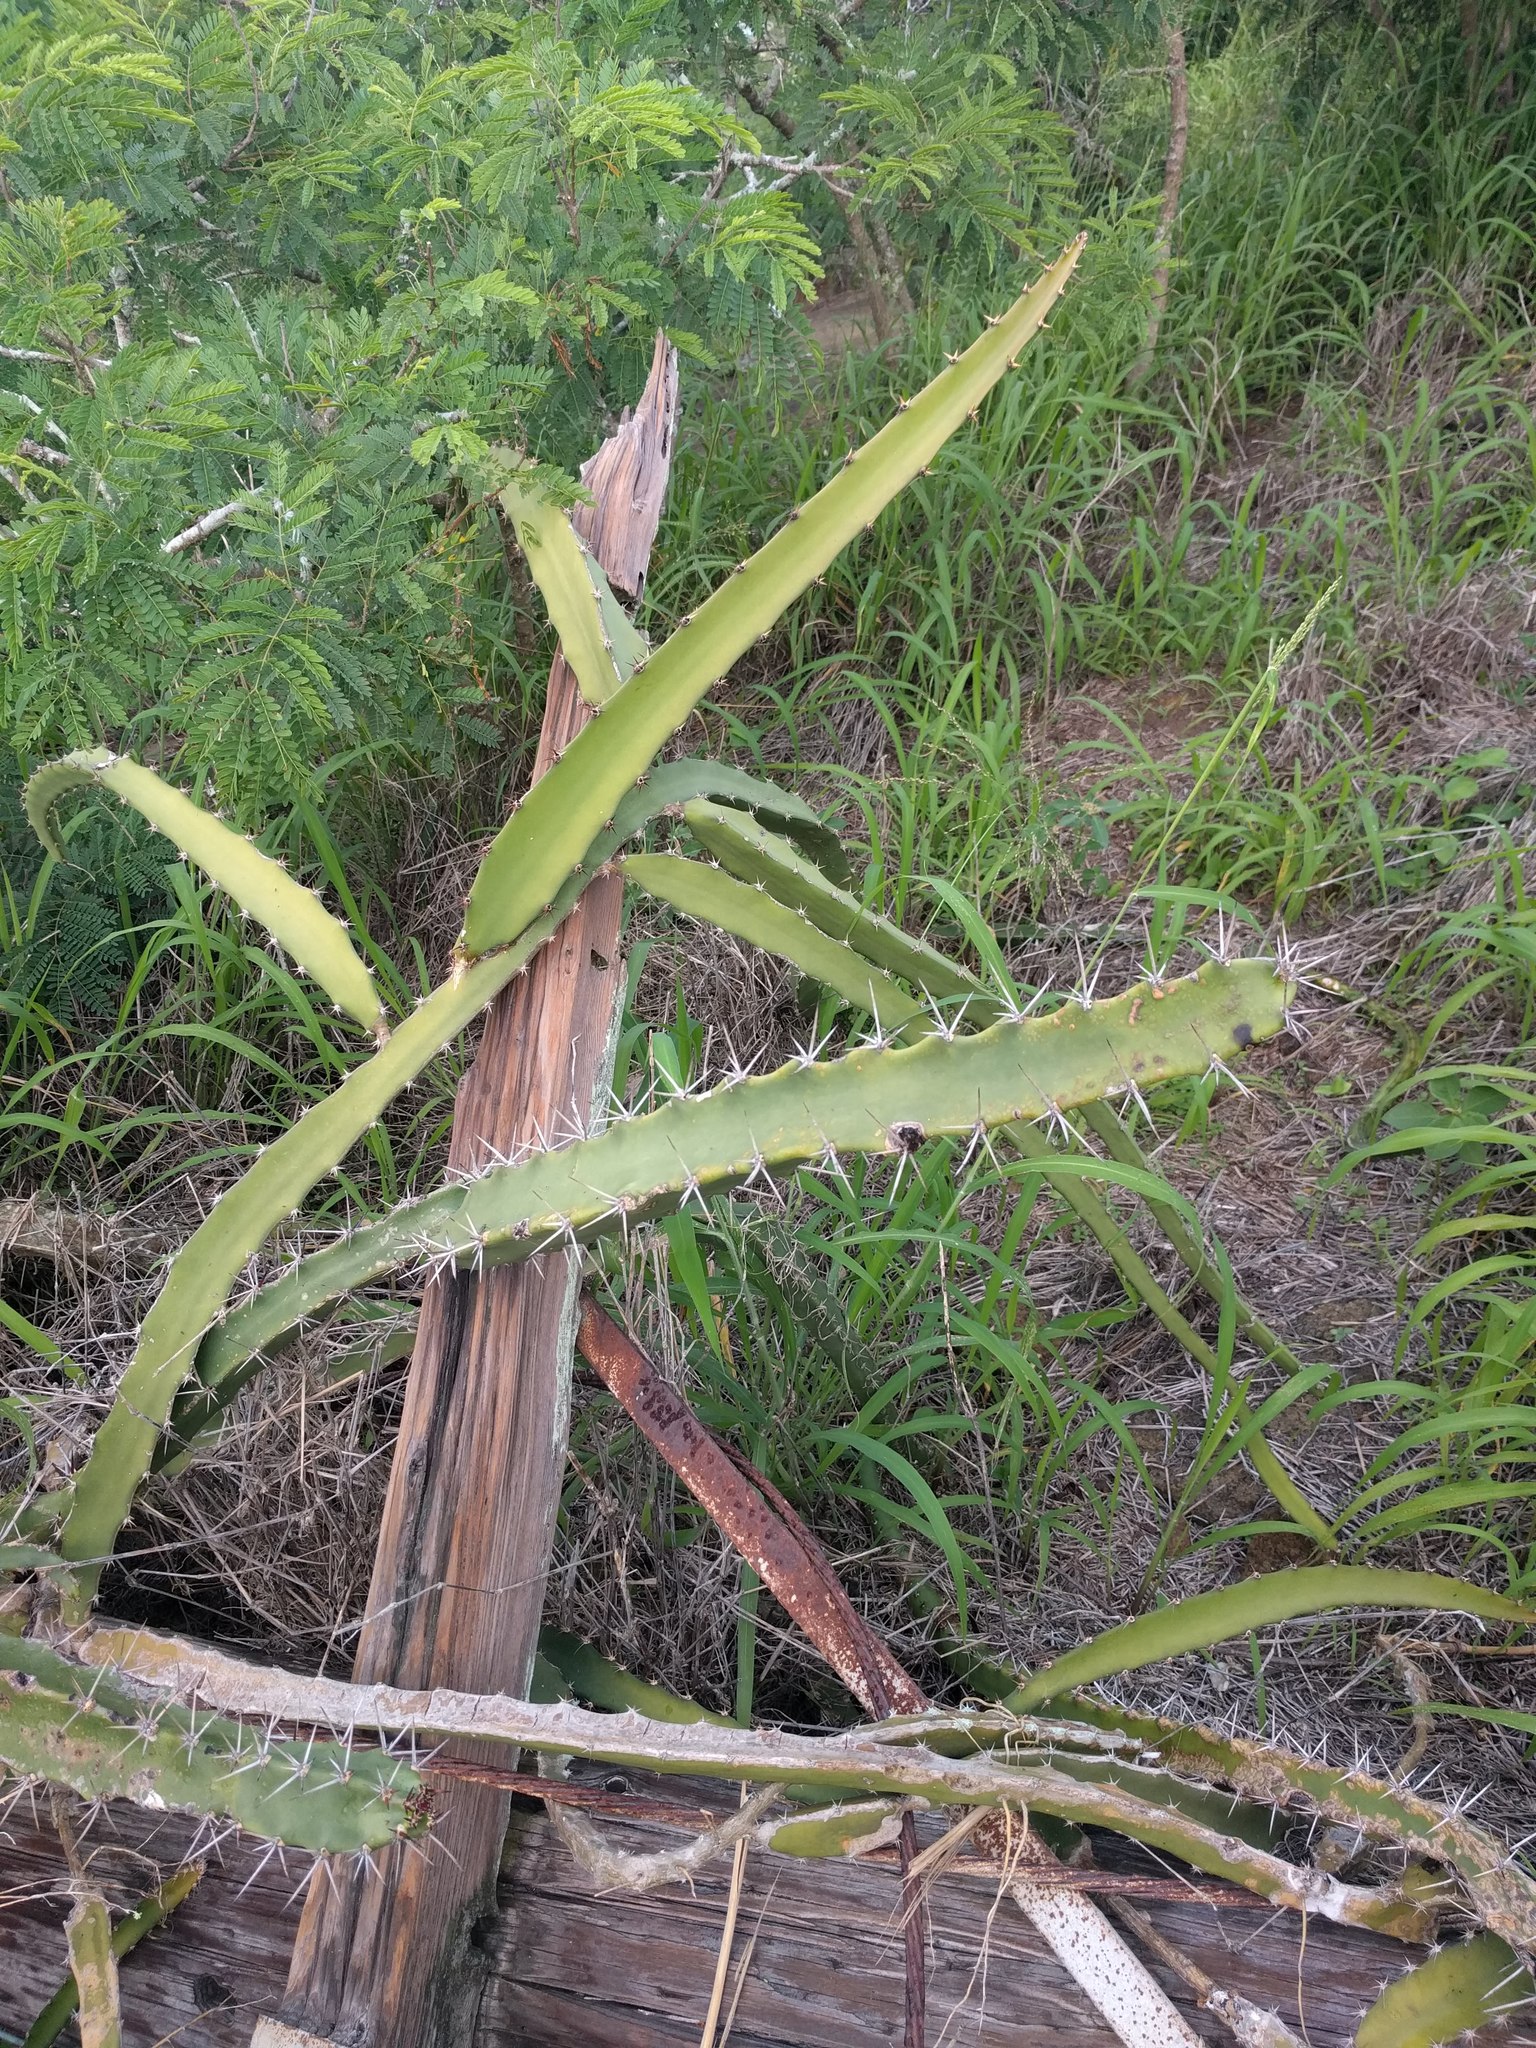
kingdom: Plantae
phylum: Tracheophyta
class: Magnoliopsida
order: Caryophyllales
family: Cactaceae
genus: Acanthocereus
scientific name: Acanthocereus tetragonus
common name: Triangle cactus
